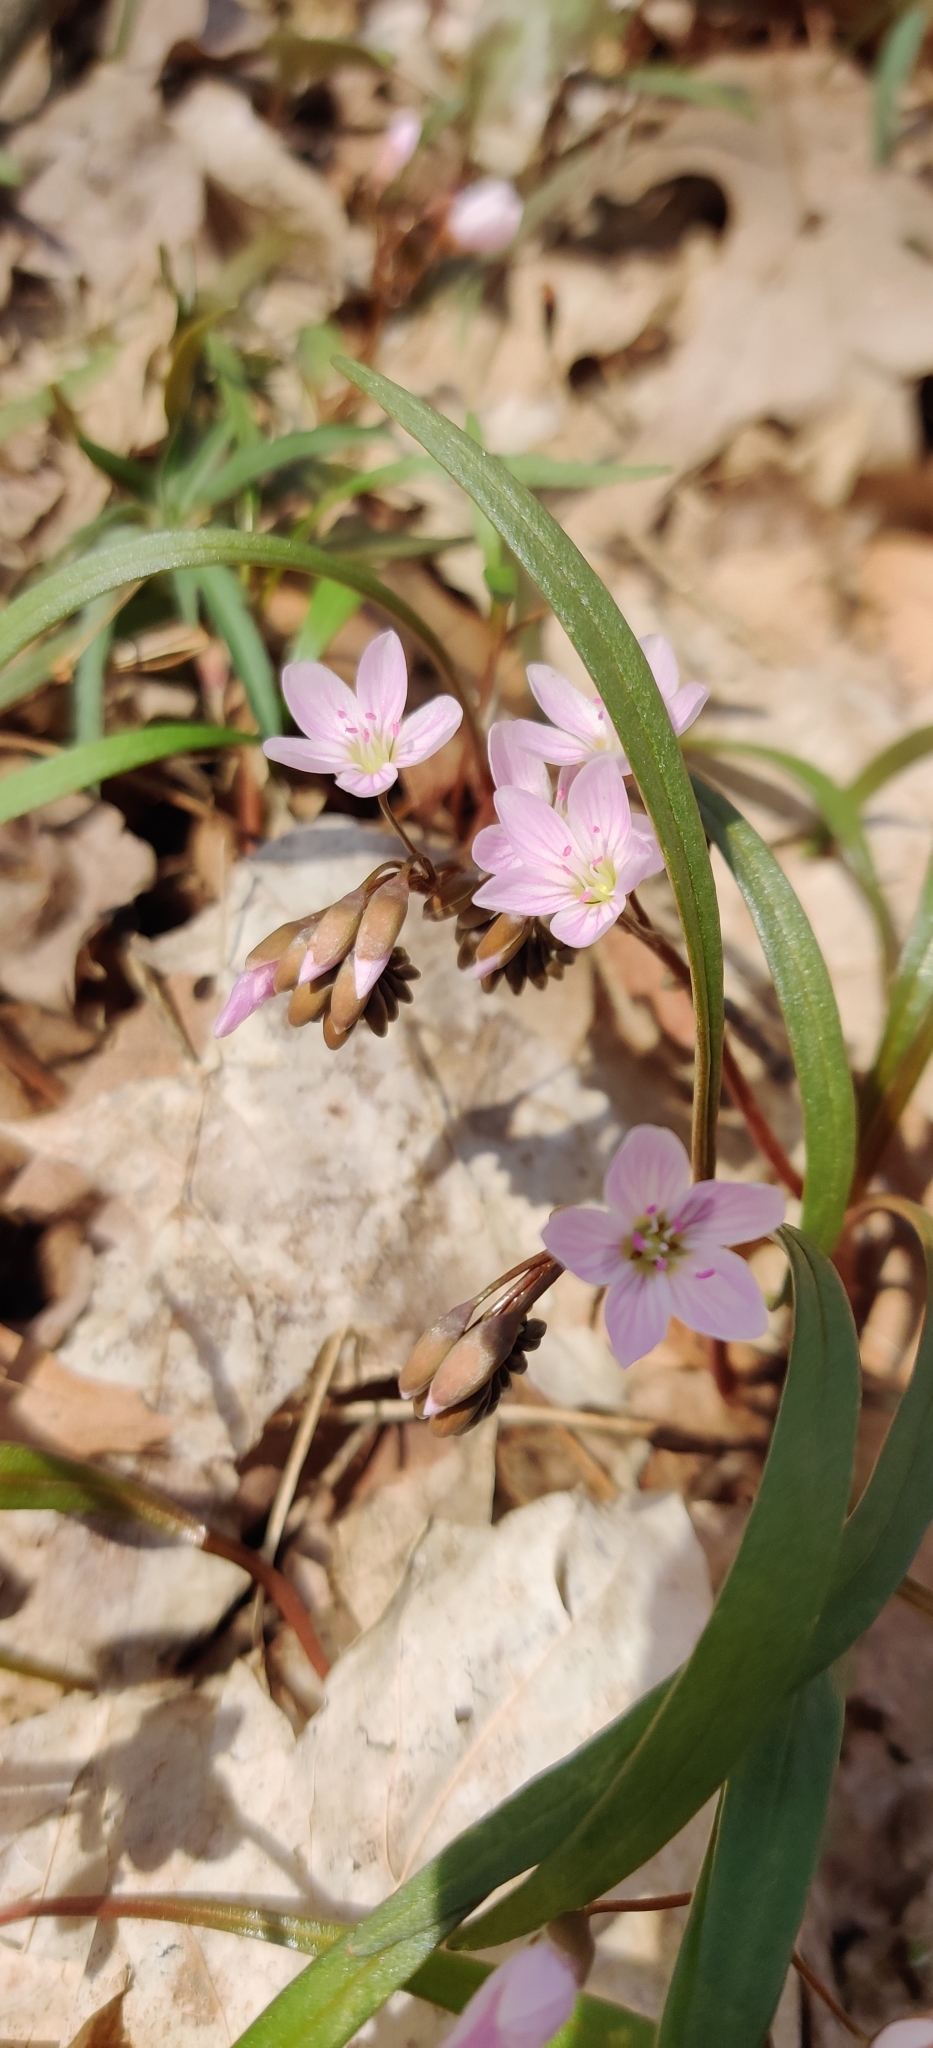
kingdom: Plantae
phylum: Tracheophyta
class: Magnoliopsida
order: Caryophyllales
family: Montiaceae
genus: Claytonia
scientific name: Claytonia virginica
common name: Virginia springbeauty
